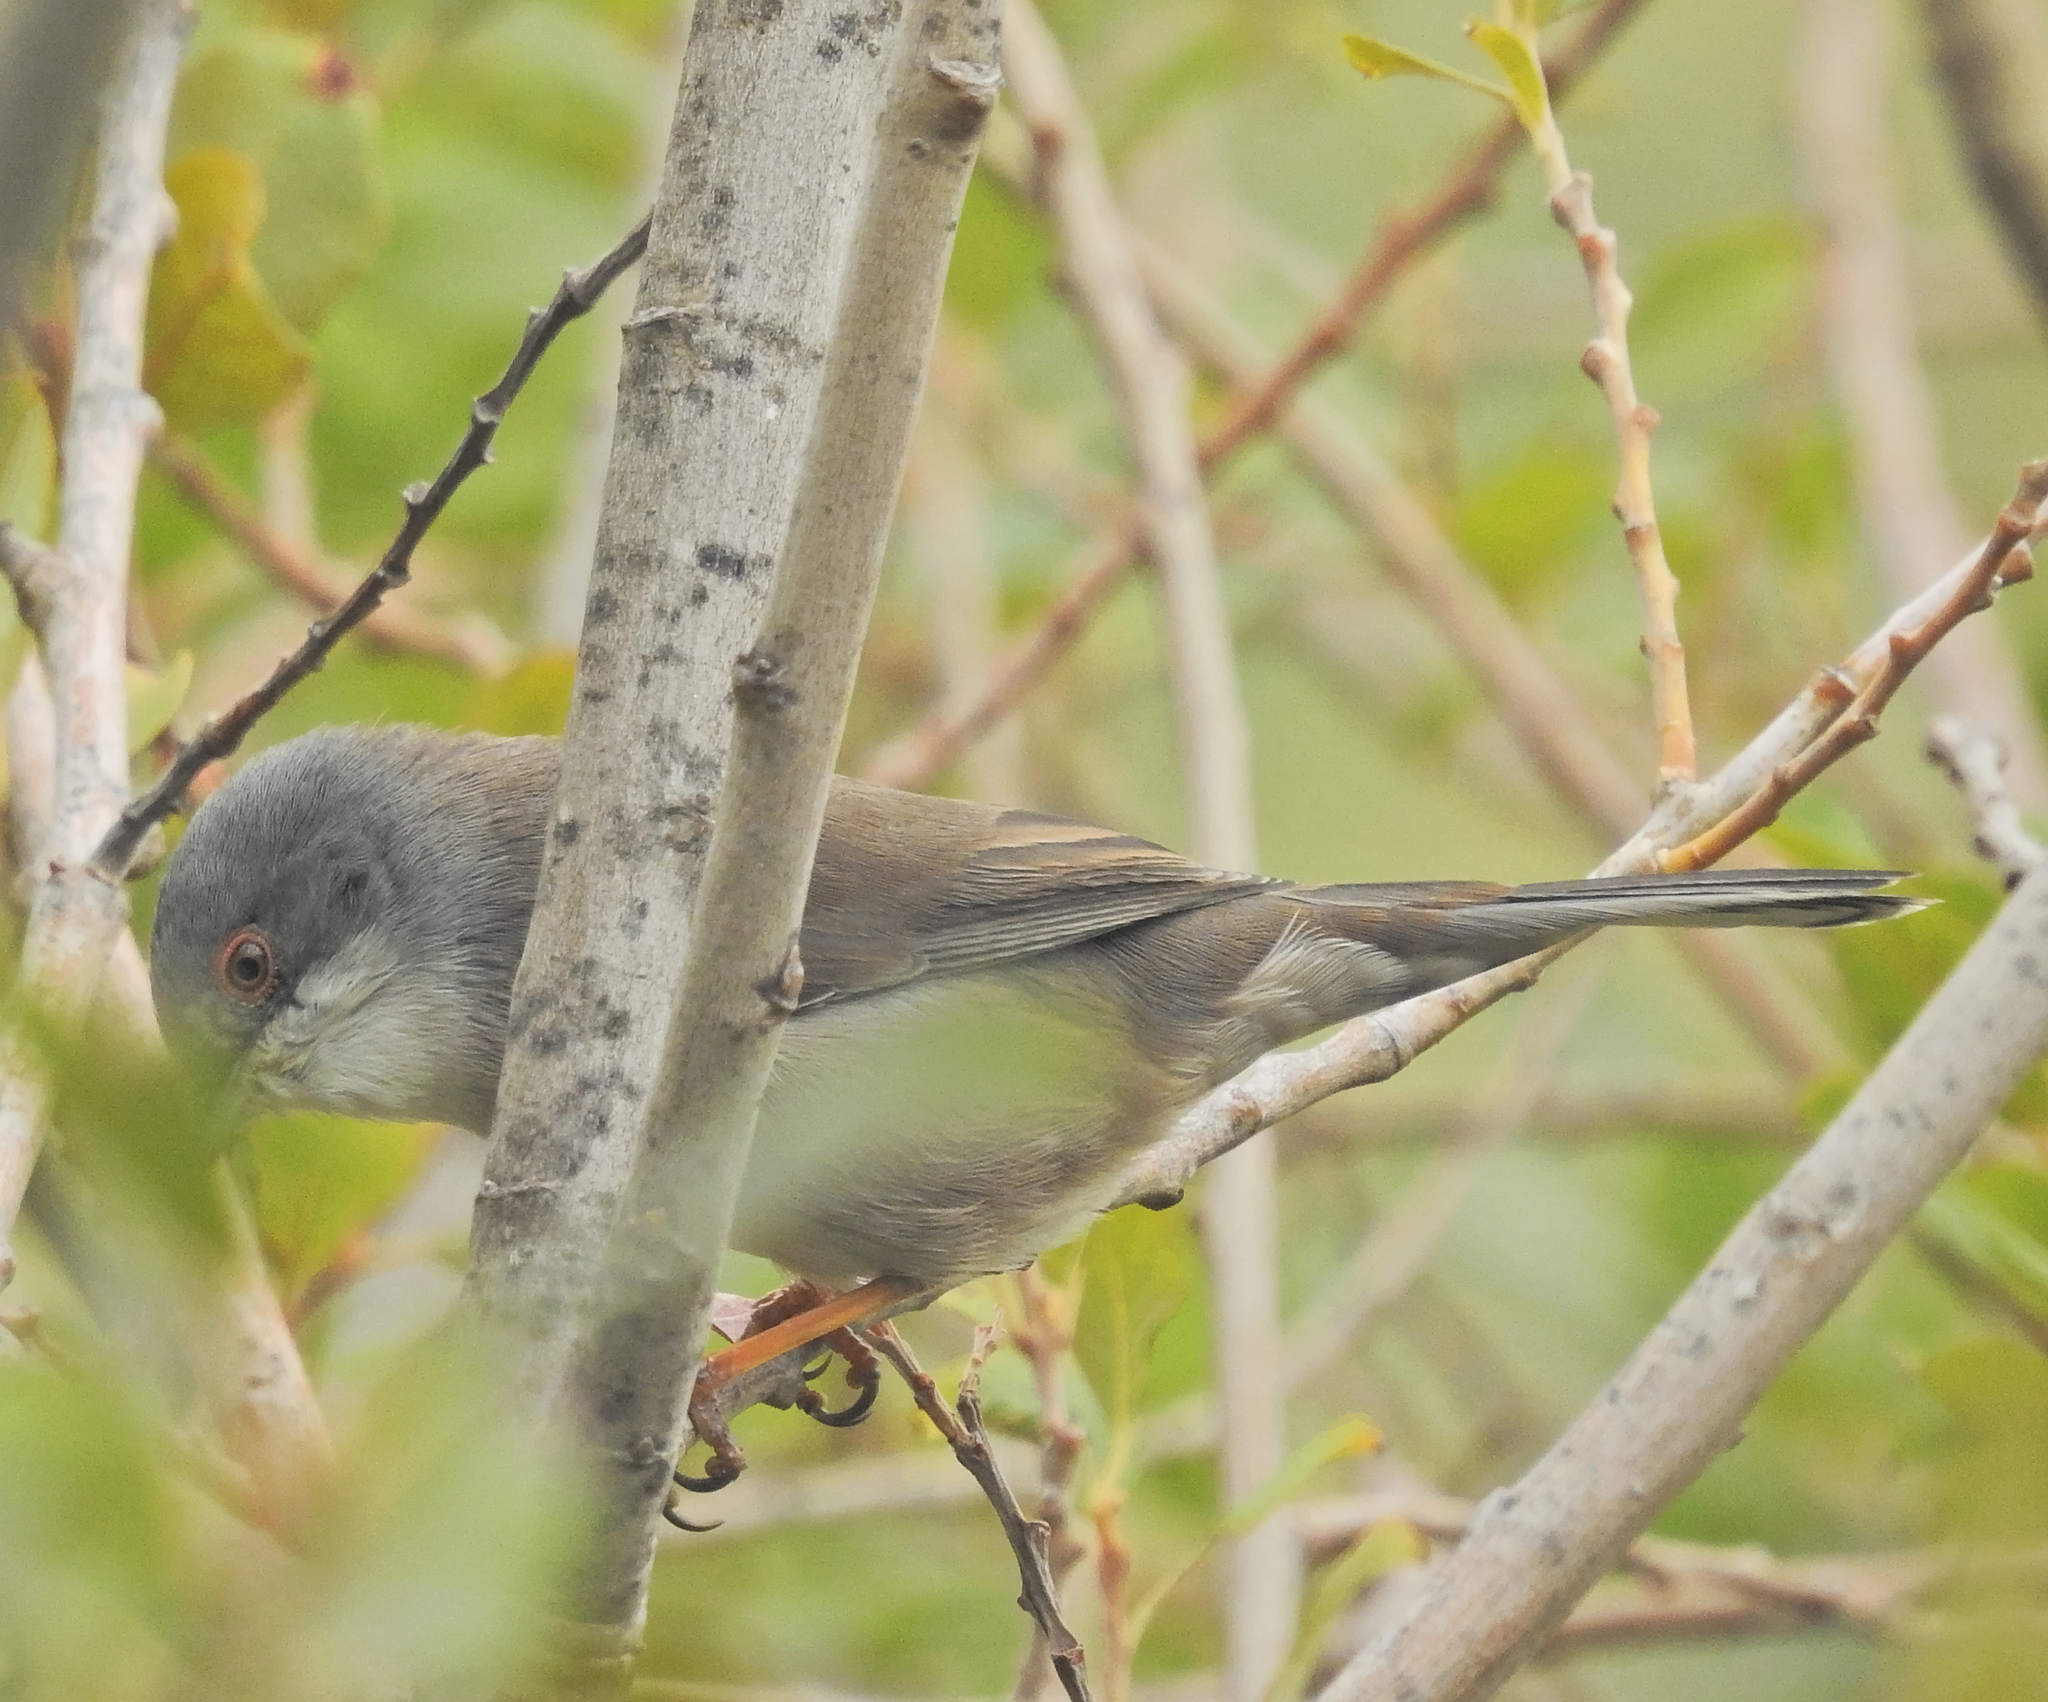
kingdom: Animalia
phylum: Chordata
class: Aves
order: Passeriformes
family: Sylviidae
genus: Curruca
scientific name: Curruca melanocephala
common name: Sardinian warbler
